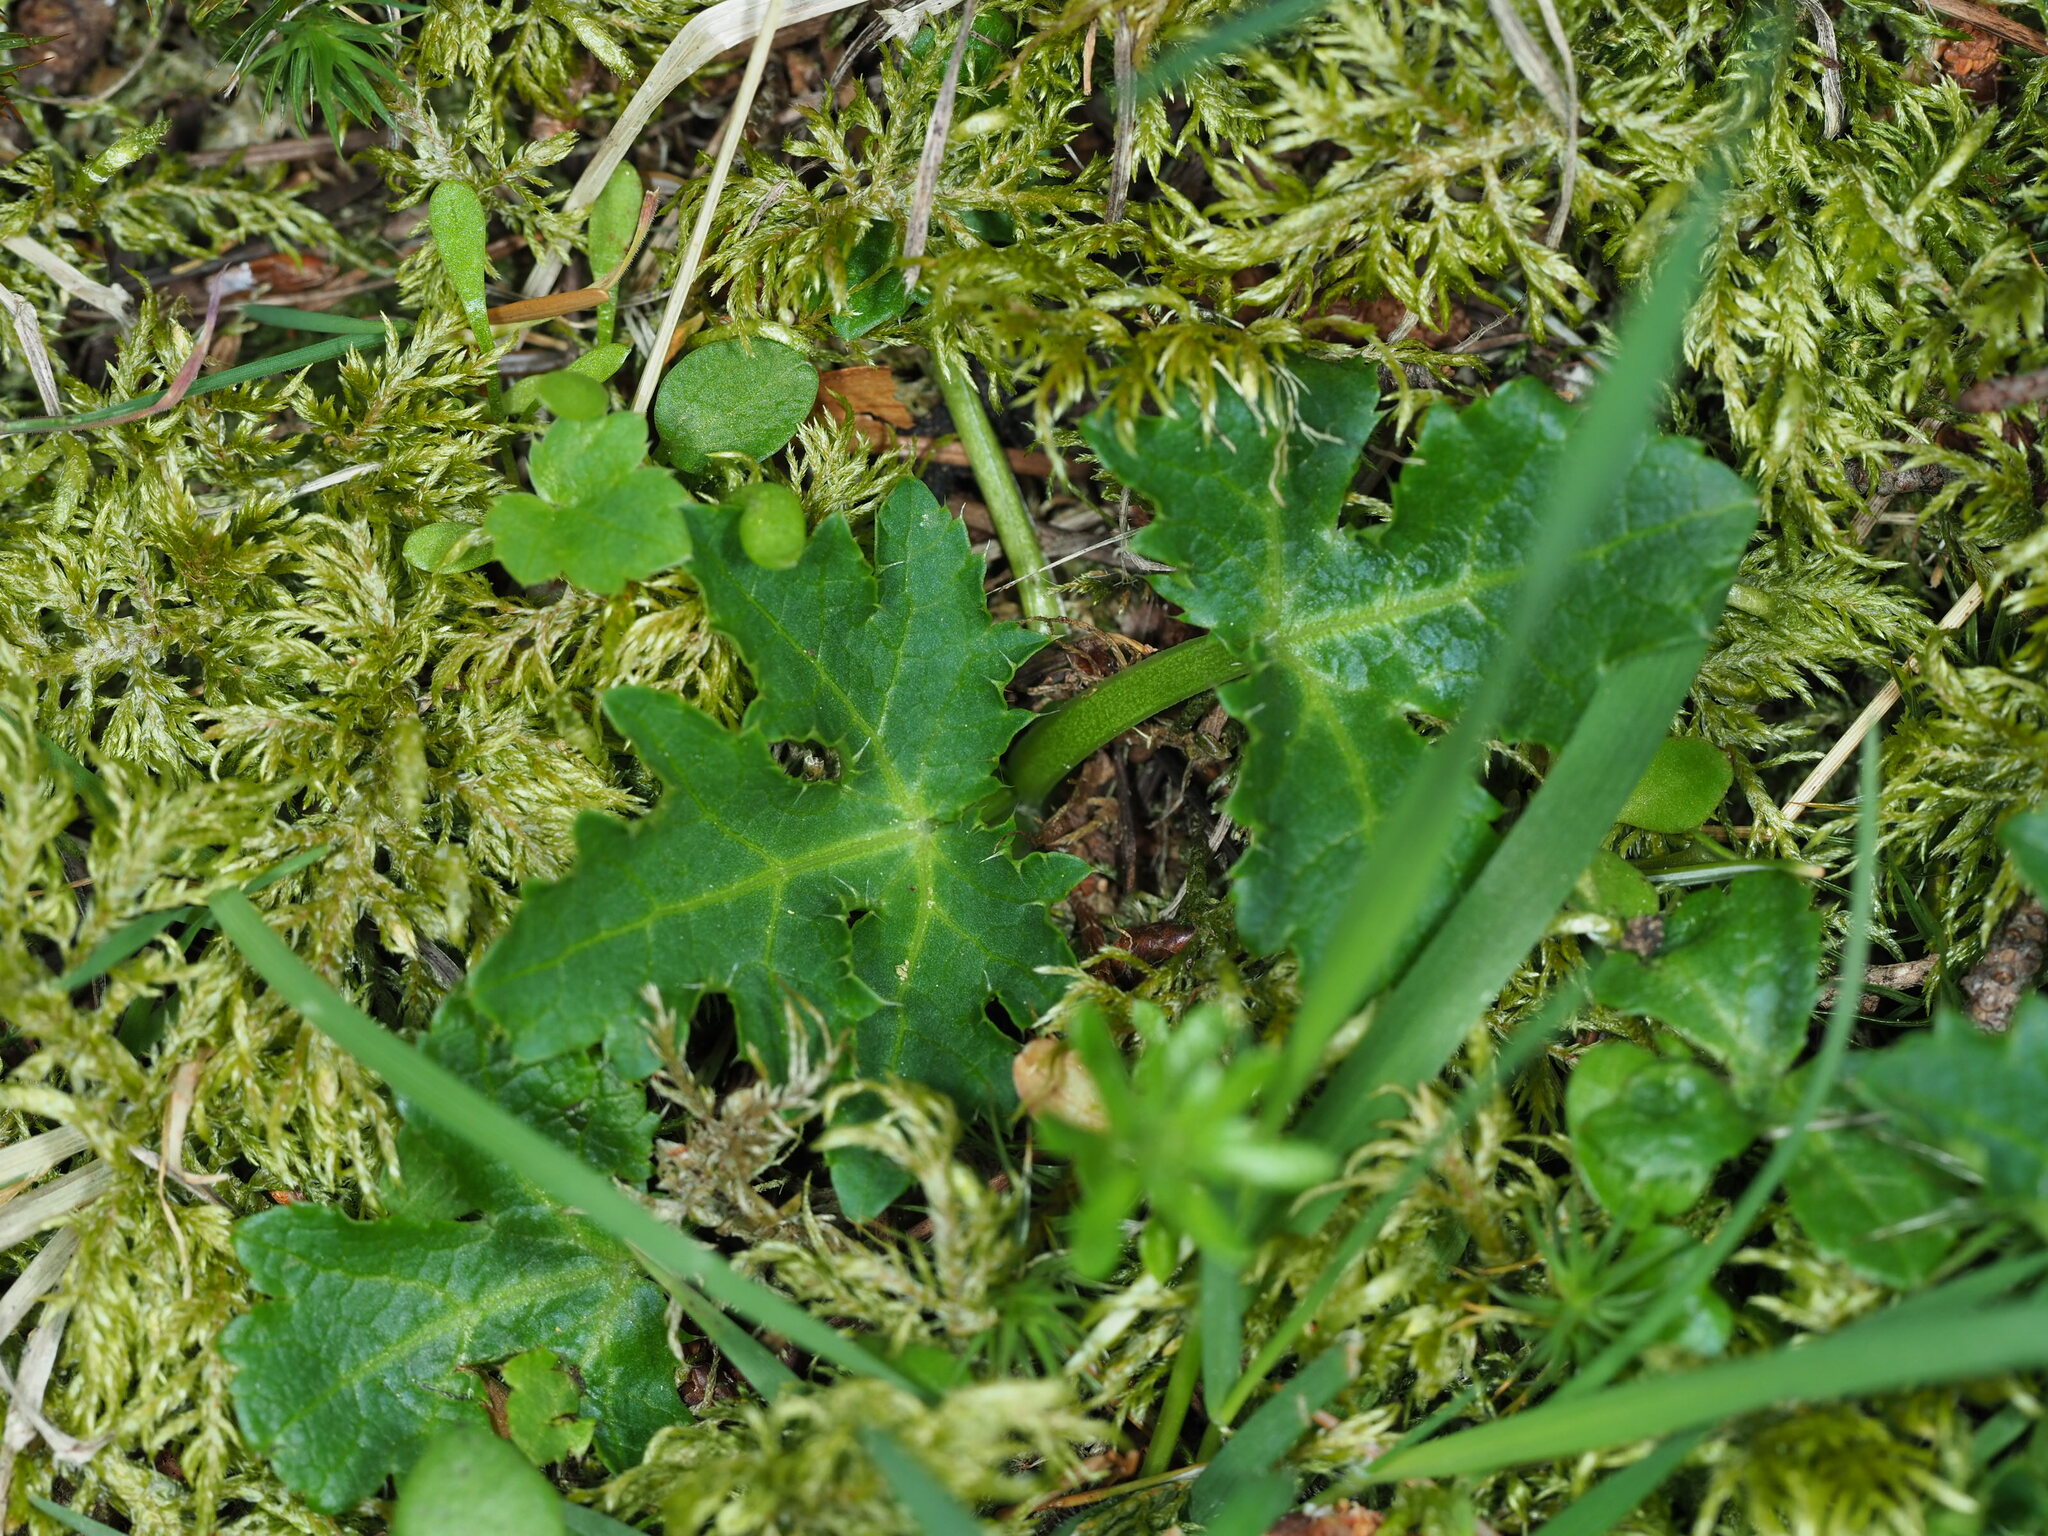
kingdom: Plantae
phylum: Tracheophyta
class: Magnoliopsida
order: Apiales
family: Apiaceae
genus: Sanicula
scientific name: Sanicula crassicaulis
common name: Western snakeroot
